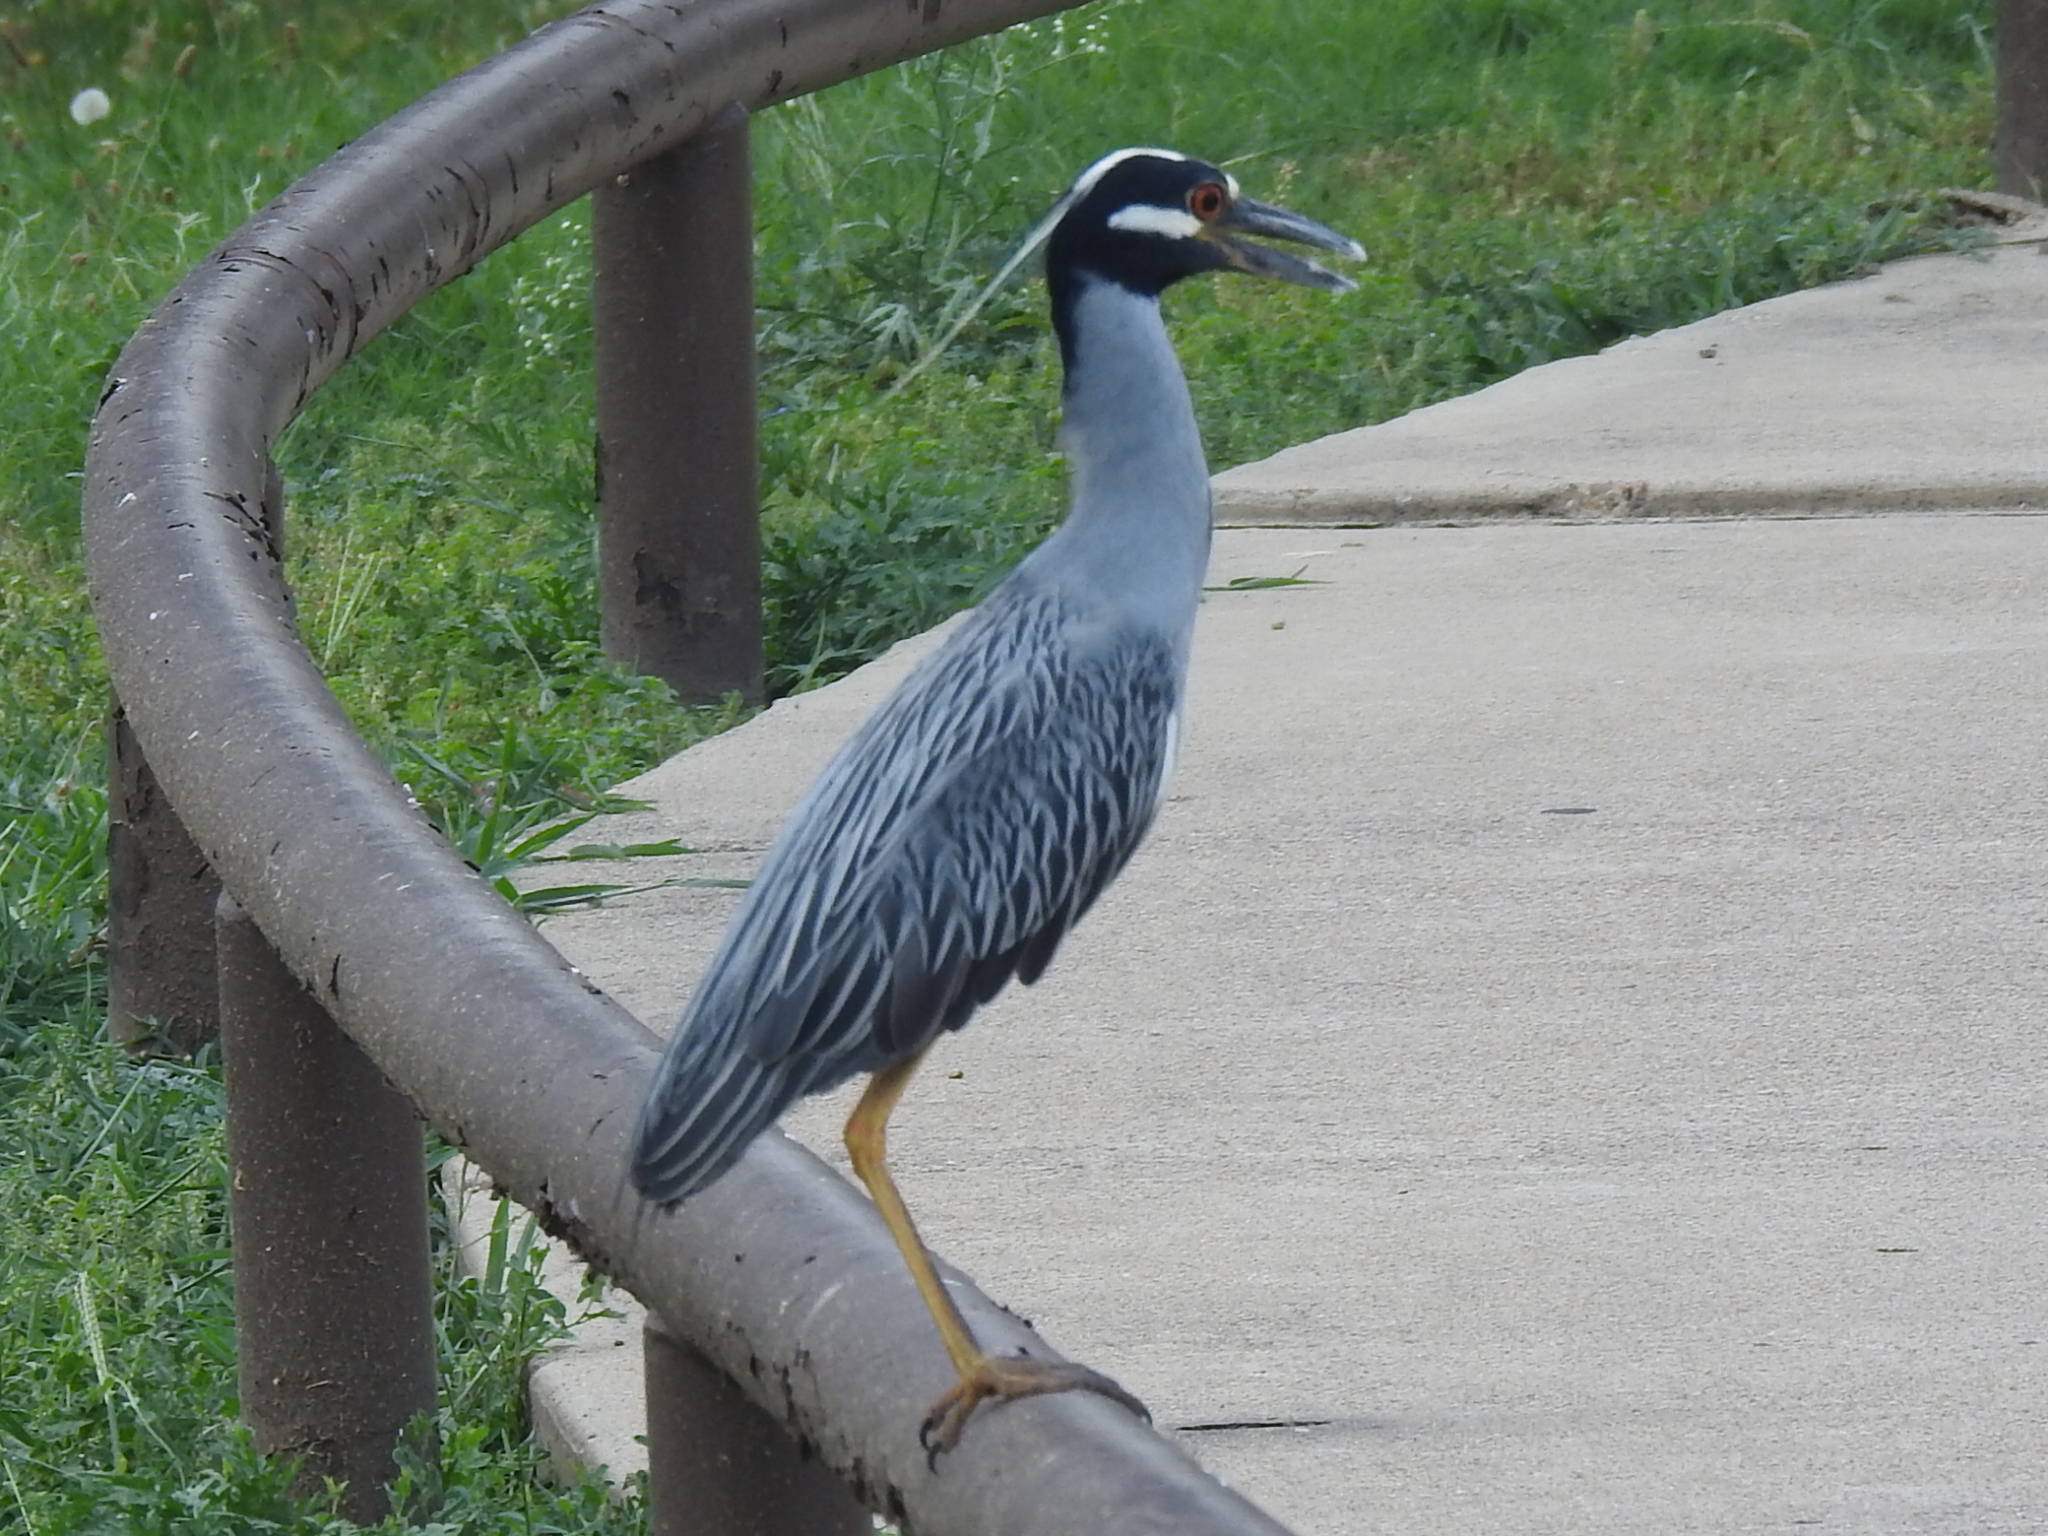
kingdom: Animalia
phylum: Chordata
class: Aves
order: Pelecaniformes
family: Ardeidae
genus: Nyctanassa
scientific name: Nyctanassa violacea
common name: Yellow-crowned night heron
